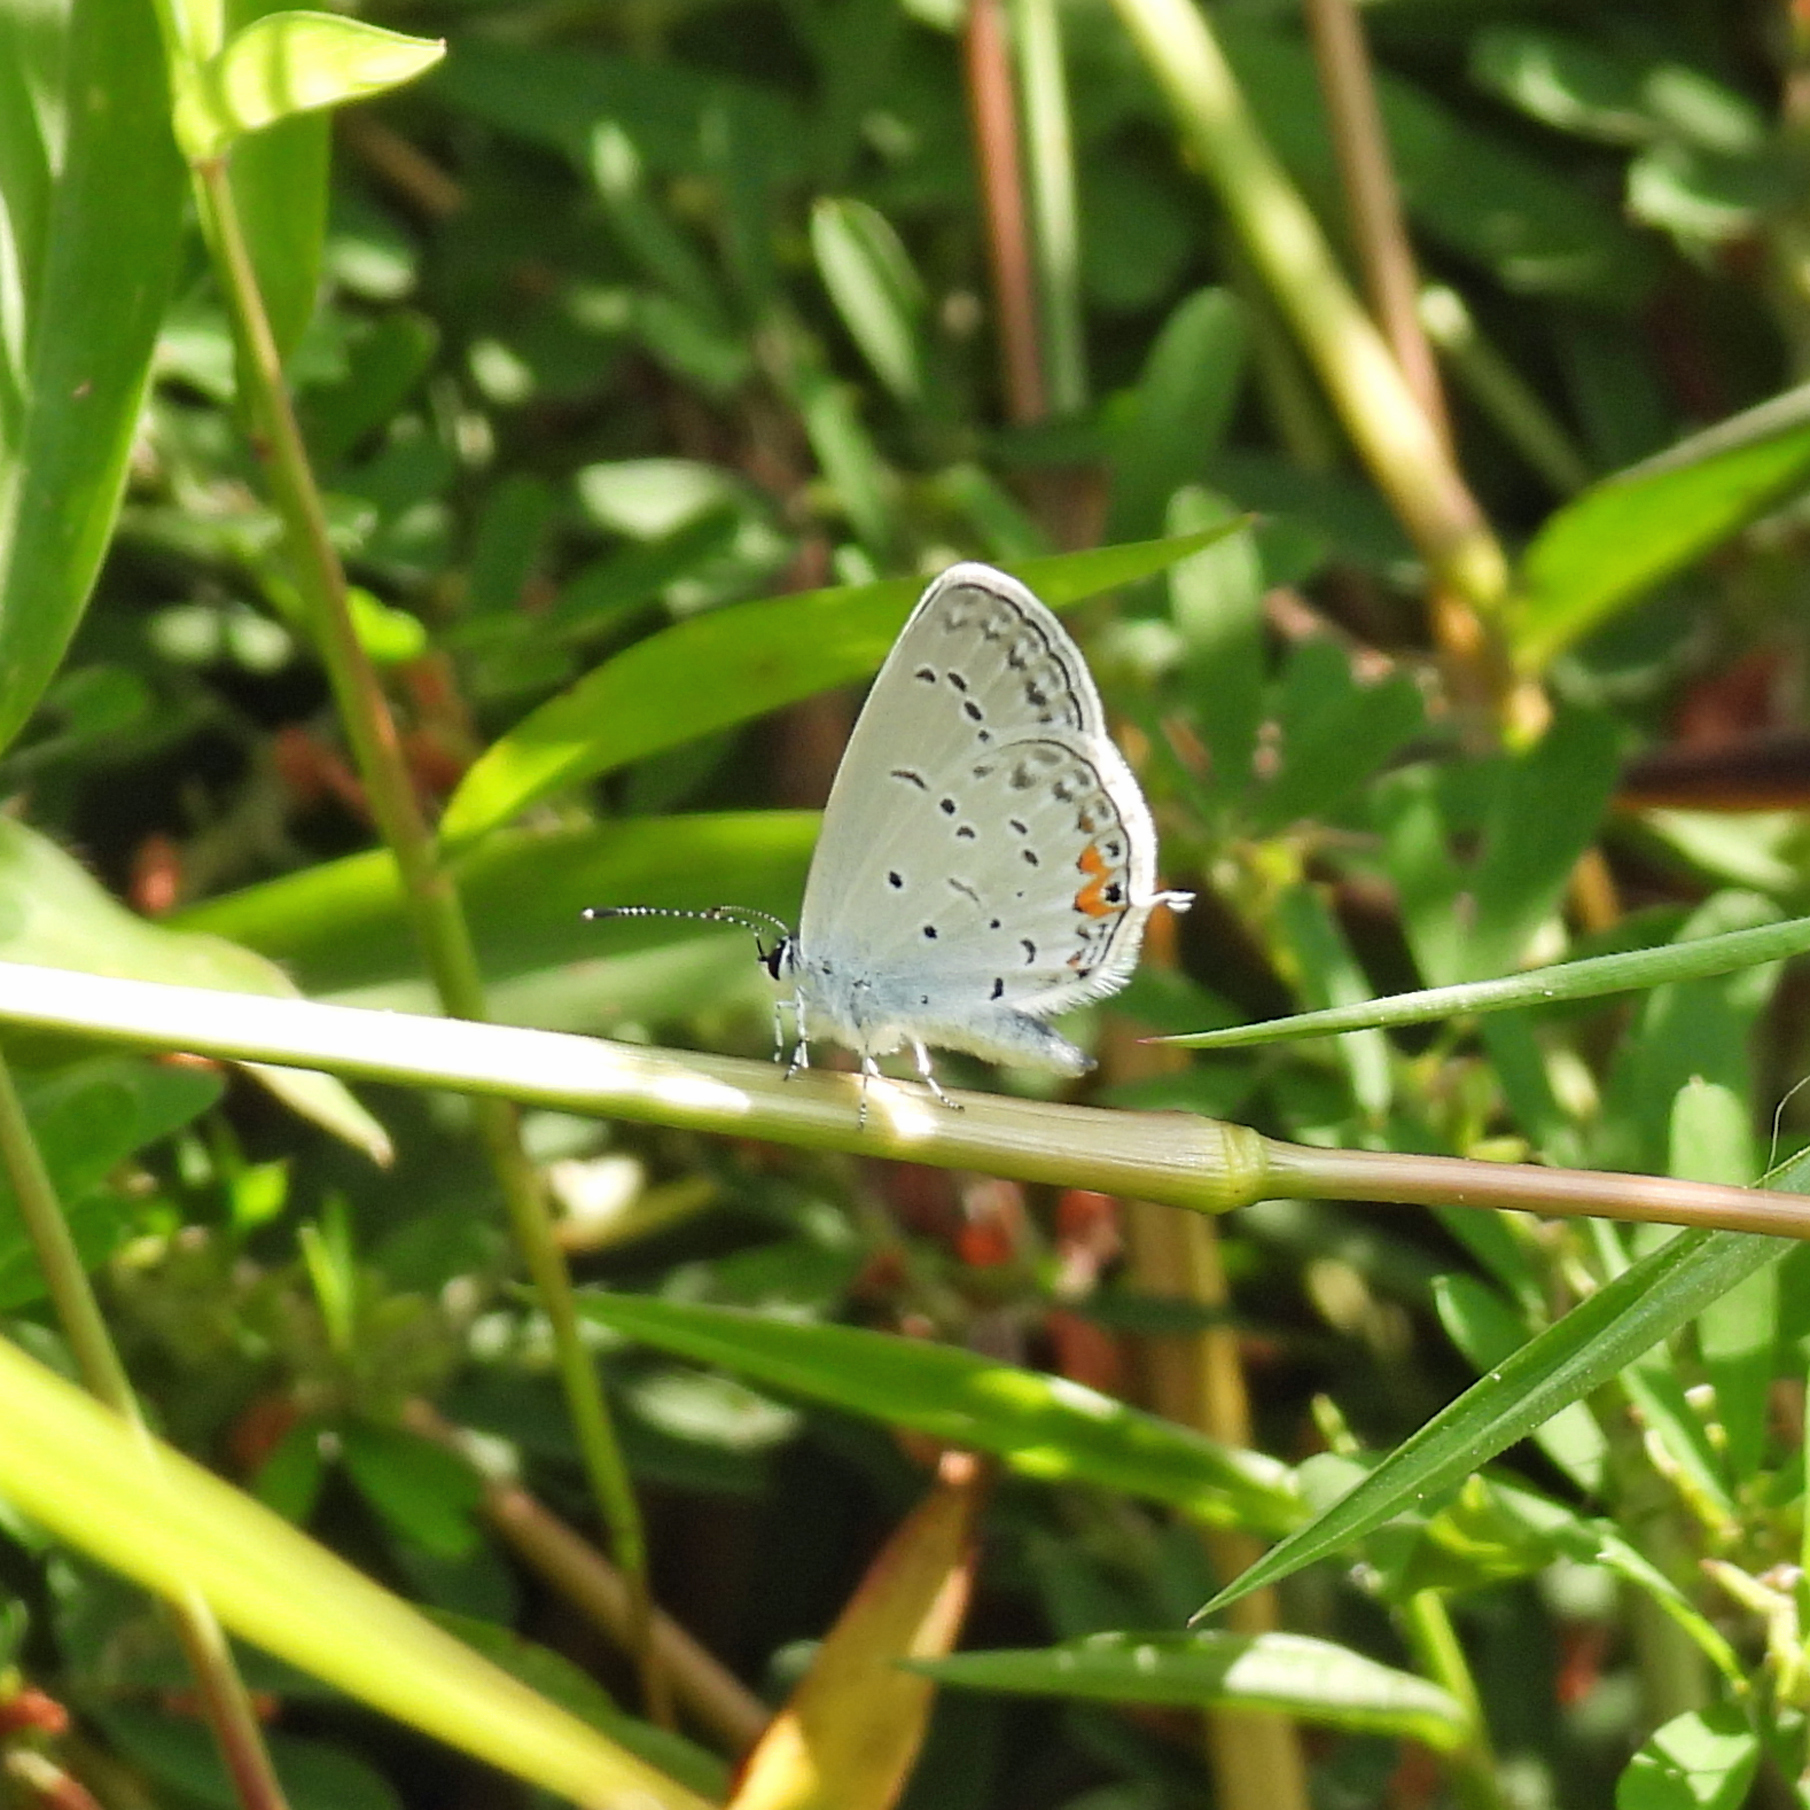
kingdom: Animalia
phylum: Arthropoda
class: Insecta
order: Lepidoptera
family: Lycaenidae
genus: Elkalyce
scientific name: Elkalyce comyntas
